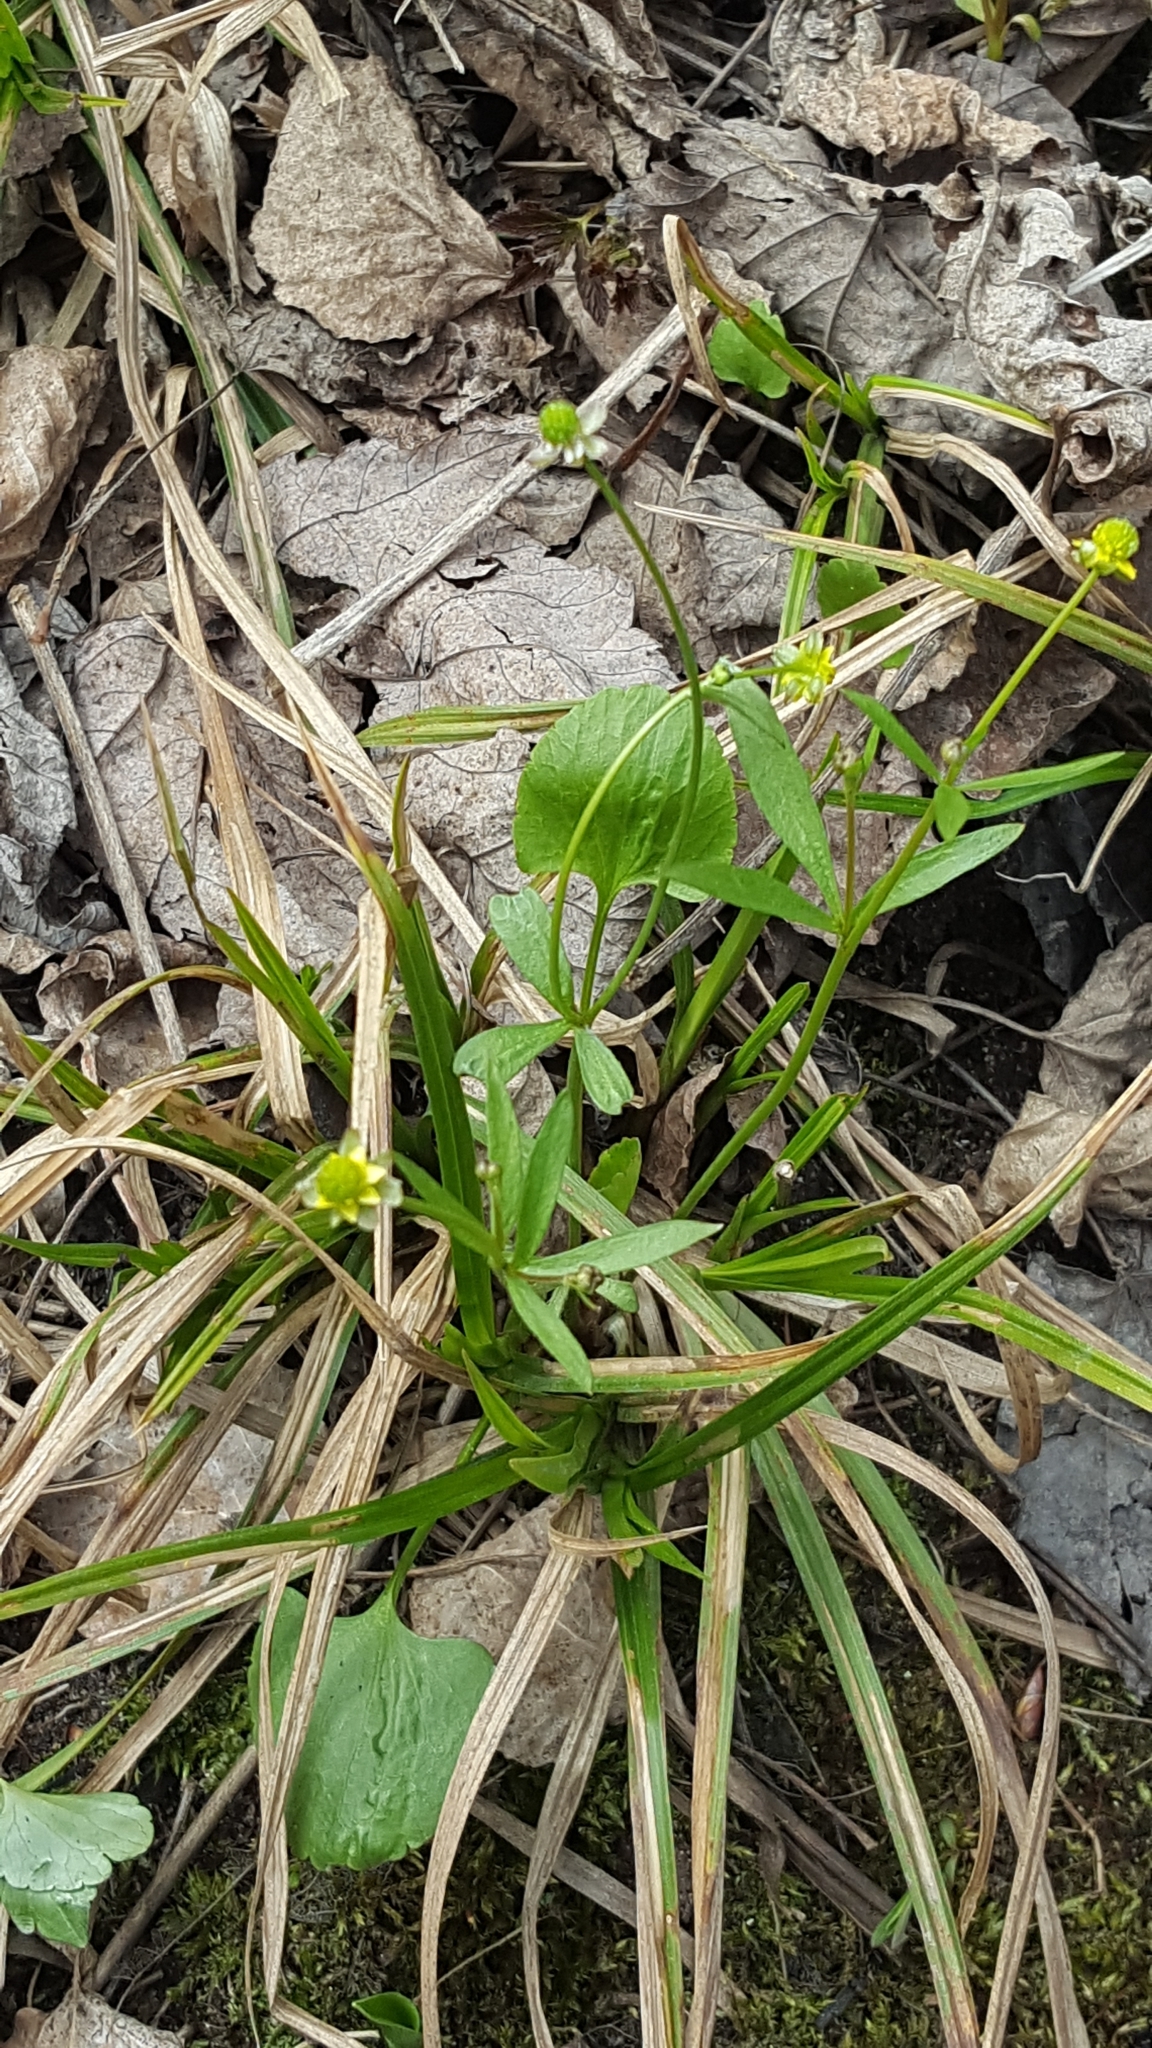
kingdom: Plantae
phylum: Tracheophyta
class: Magnoliopsida
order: Ranunculales
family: Ranunculaceae
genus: Ranunculus
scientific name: Ranunculus abortivus
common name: Early wood buttercup
